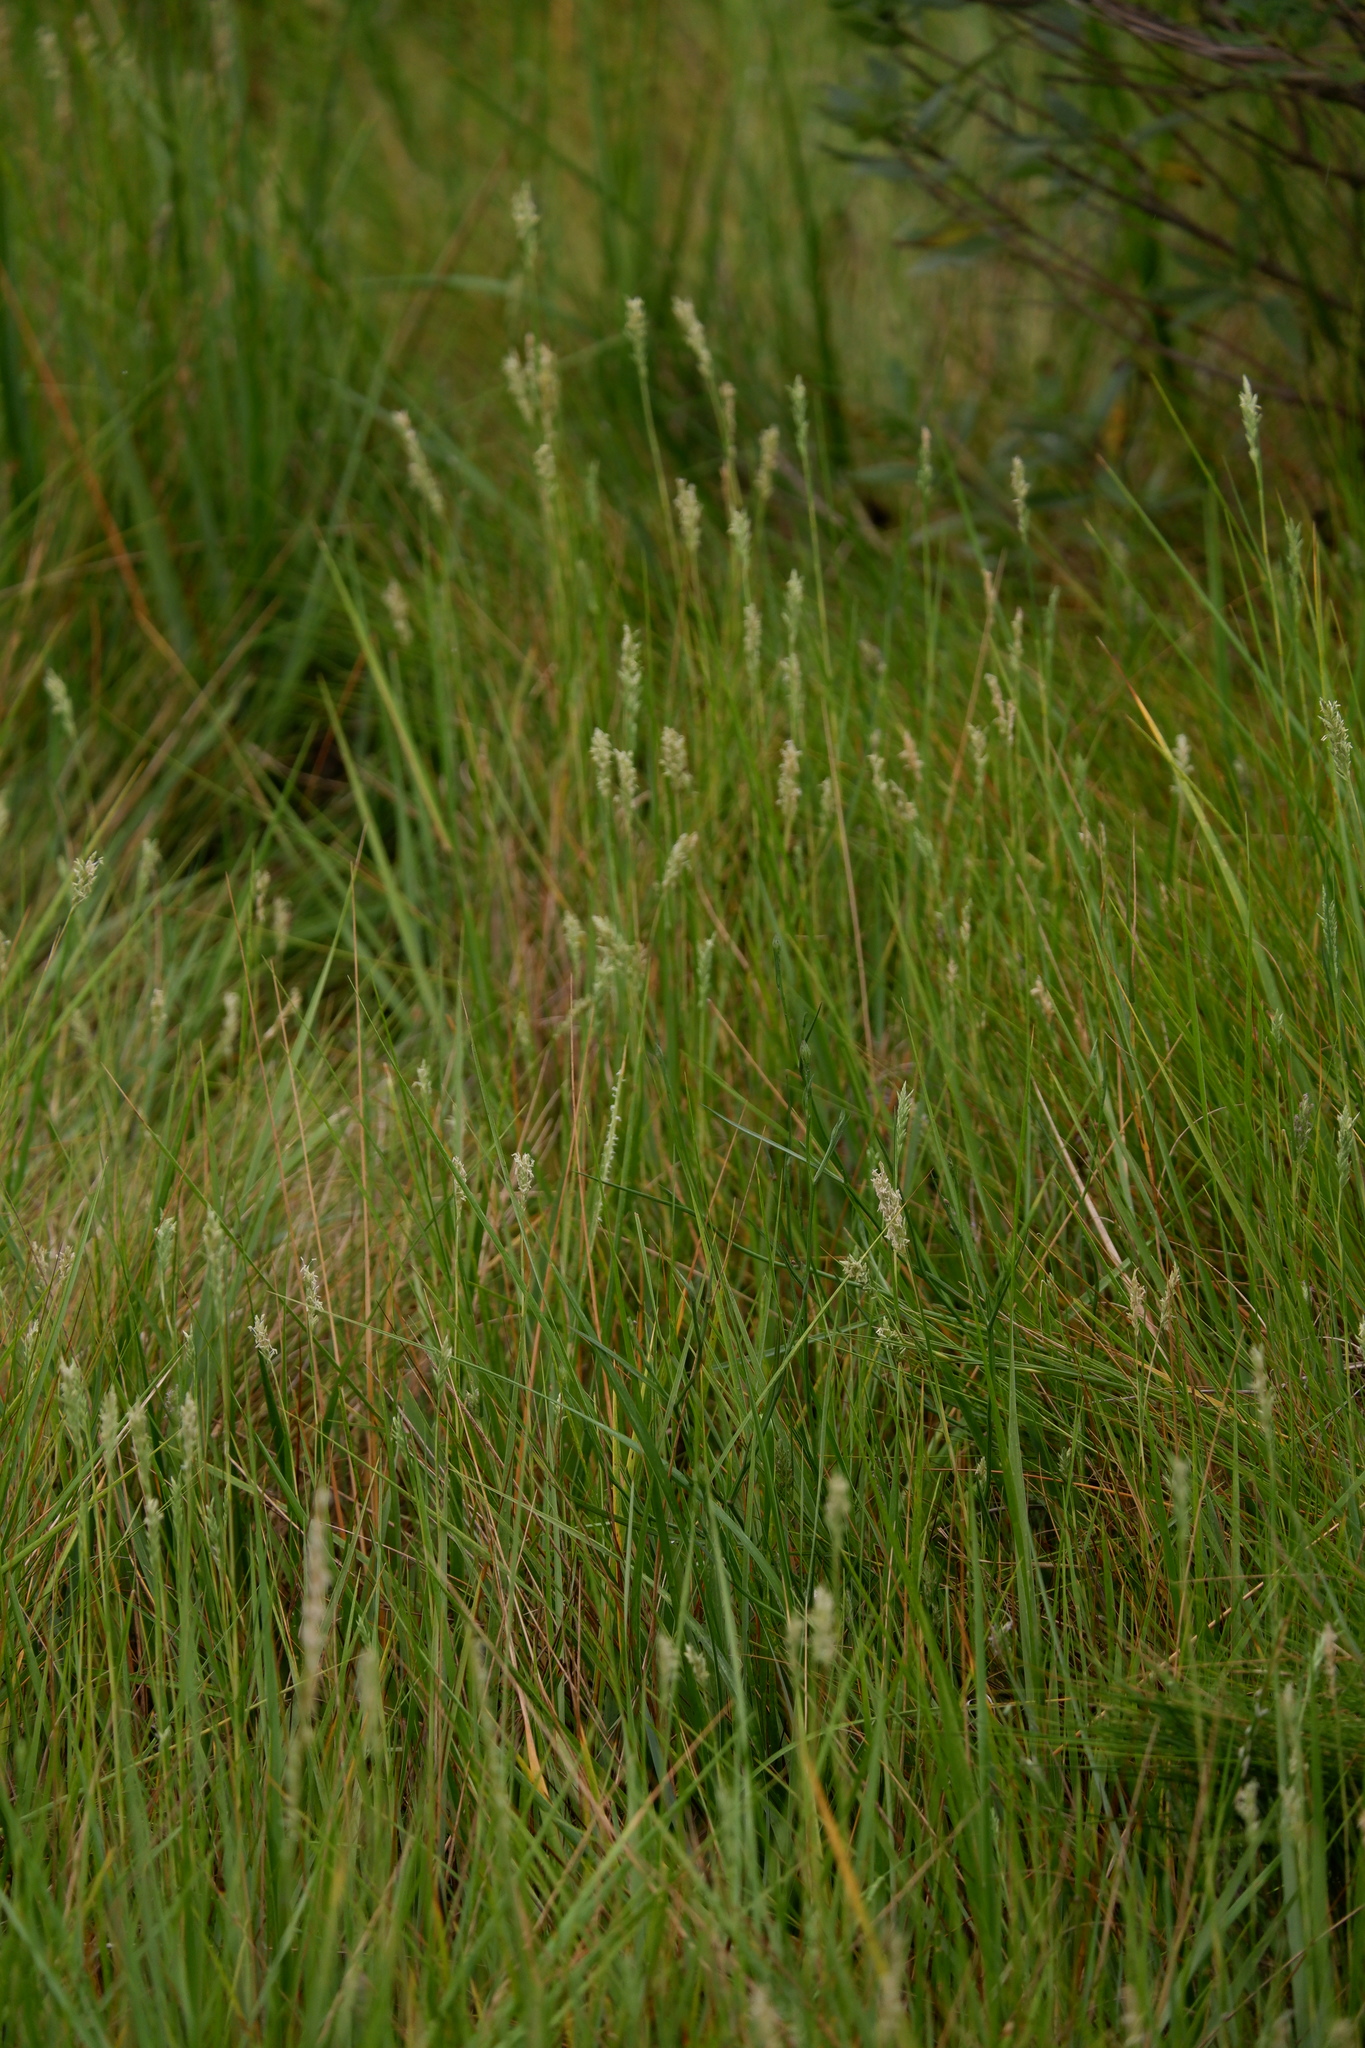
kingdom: Plantae
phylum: Tracheophyta
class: Liliopsida
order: Poales
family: Poaceae
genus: Distichlis
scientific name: Distichlis spicata
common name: Saltgrass
